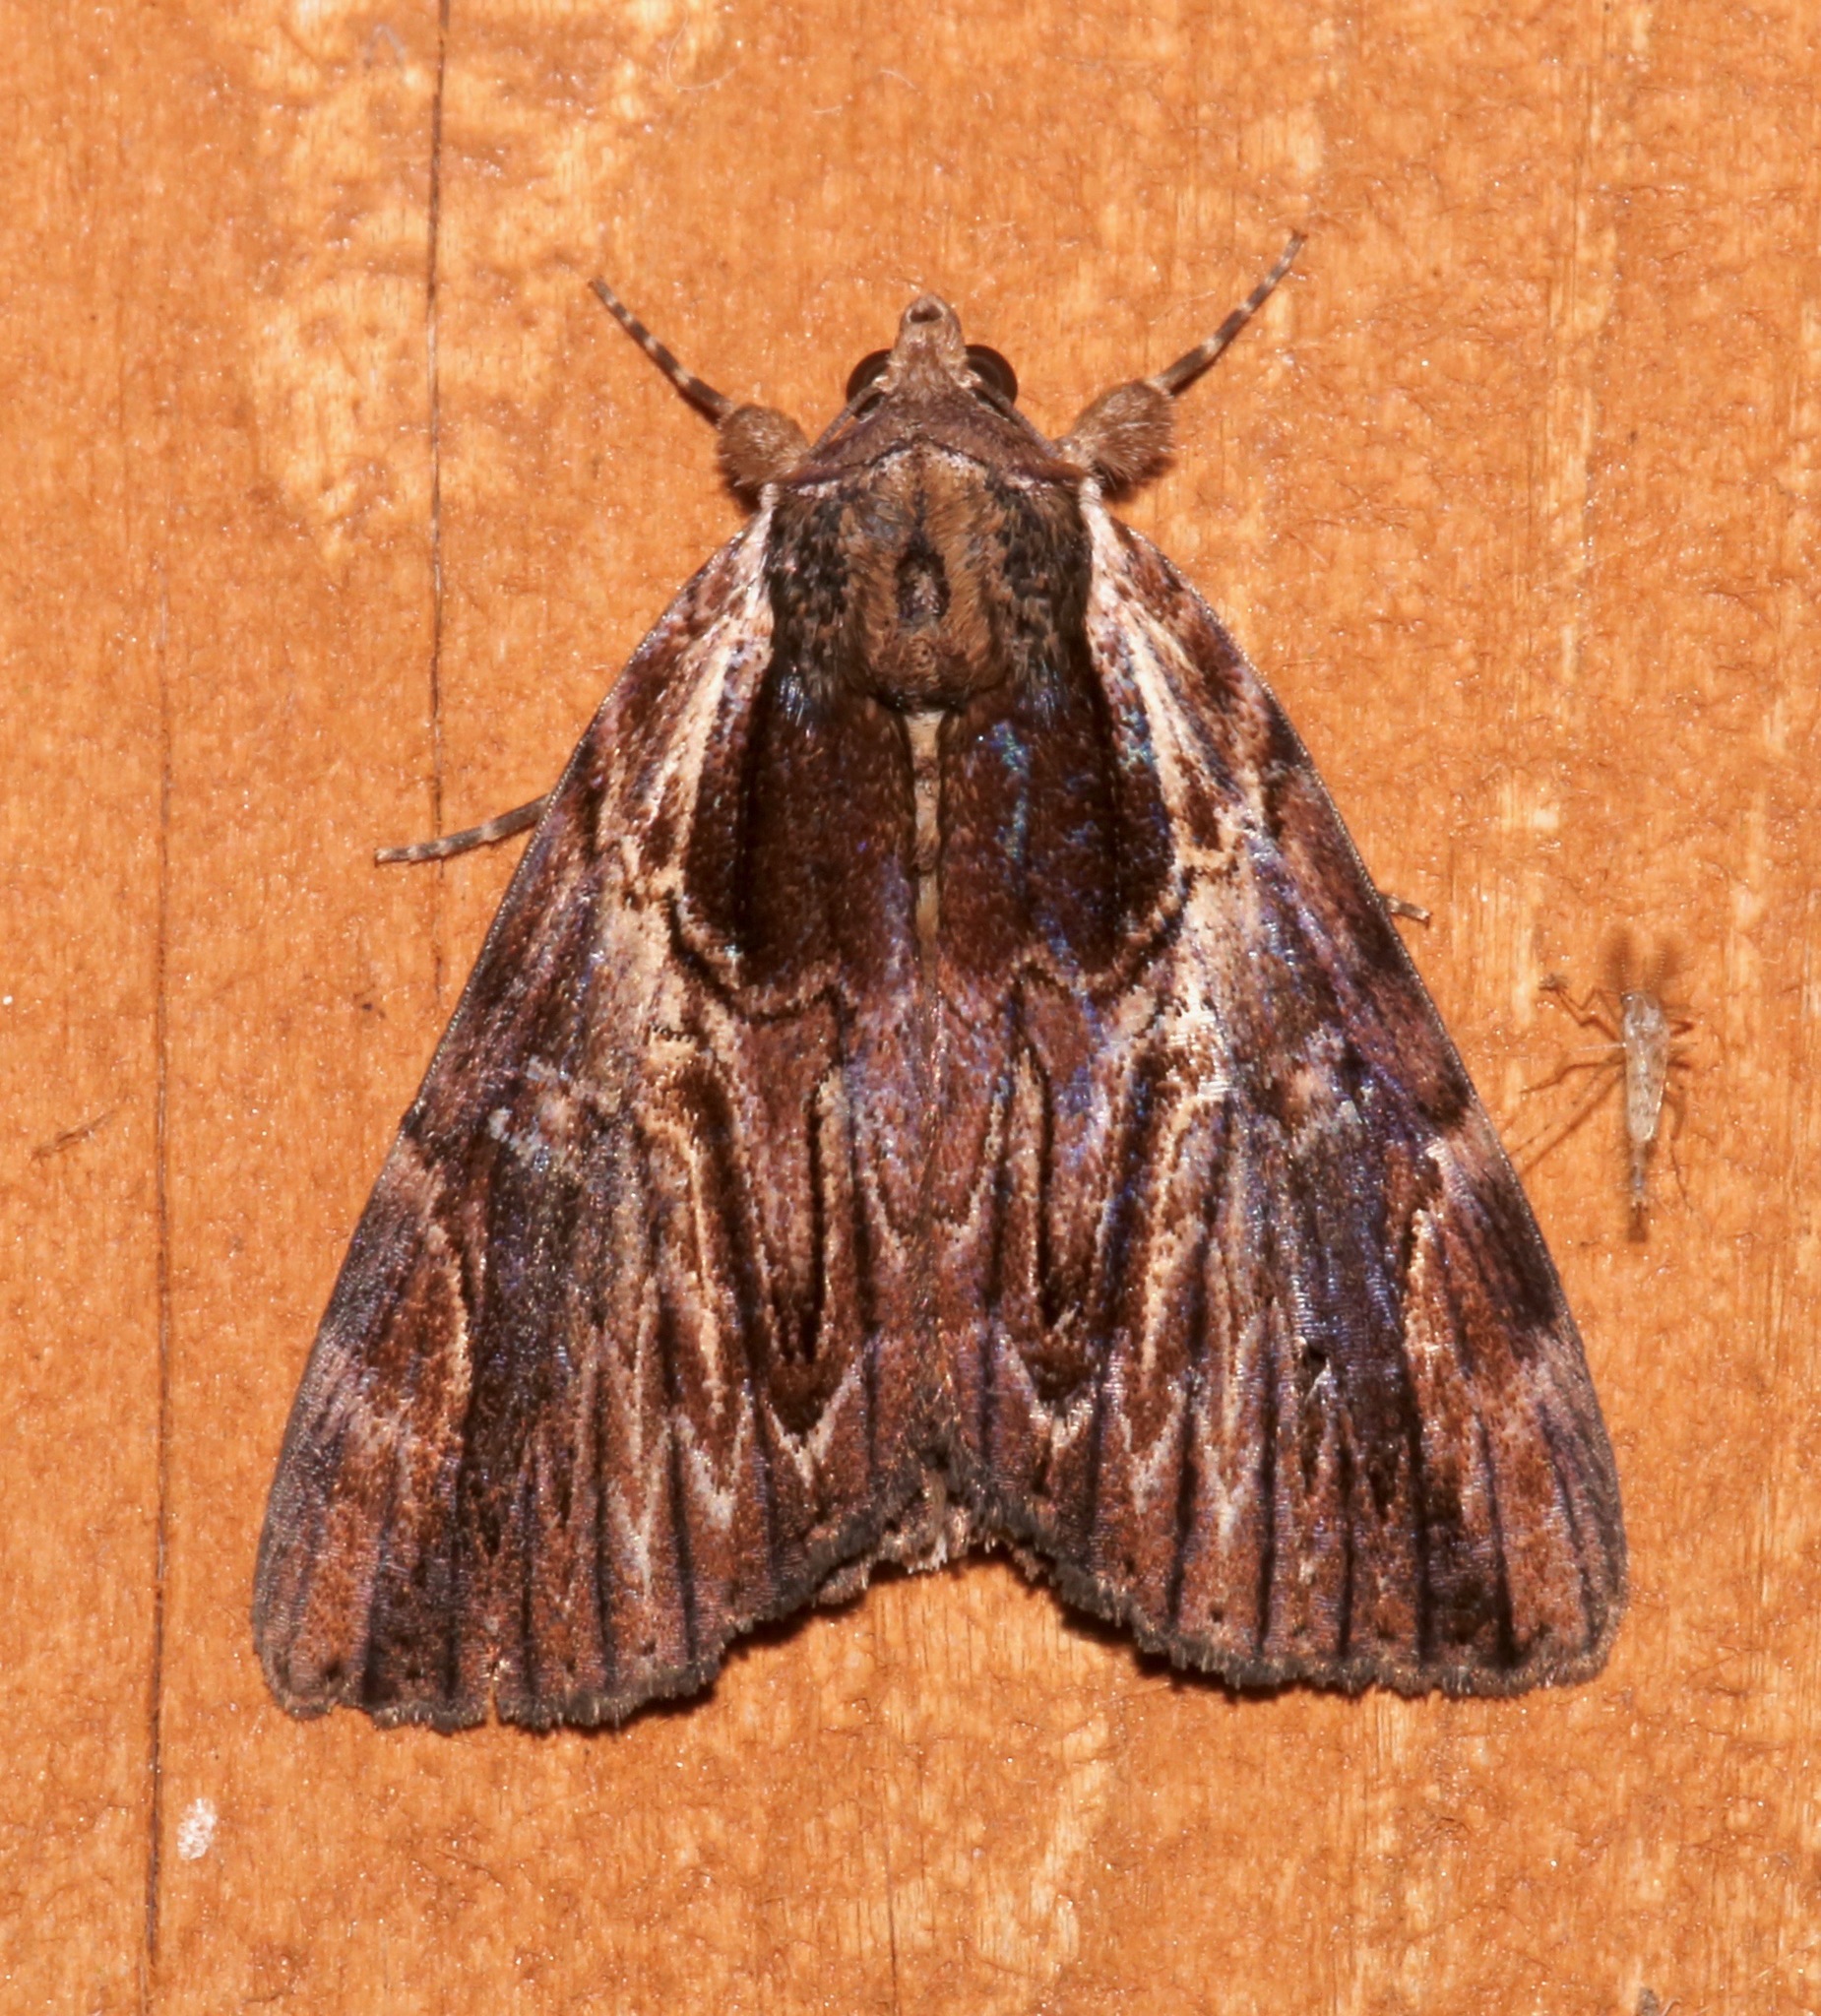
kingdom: Animalia
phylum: Arthropoda
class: Insecta
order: Lepidoptera
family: Erebidae
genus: Catocala
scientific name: Catocala ultronia
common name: Ultronia underwing
